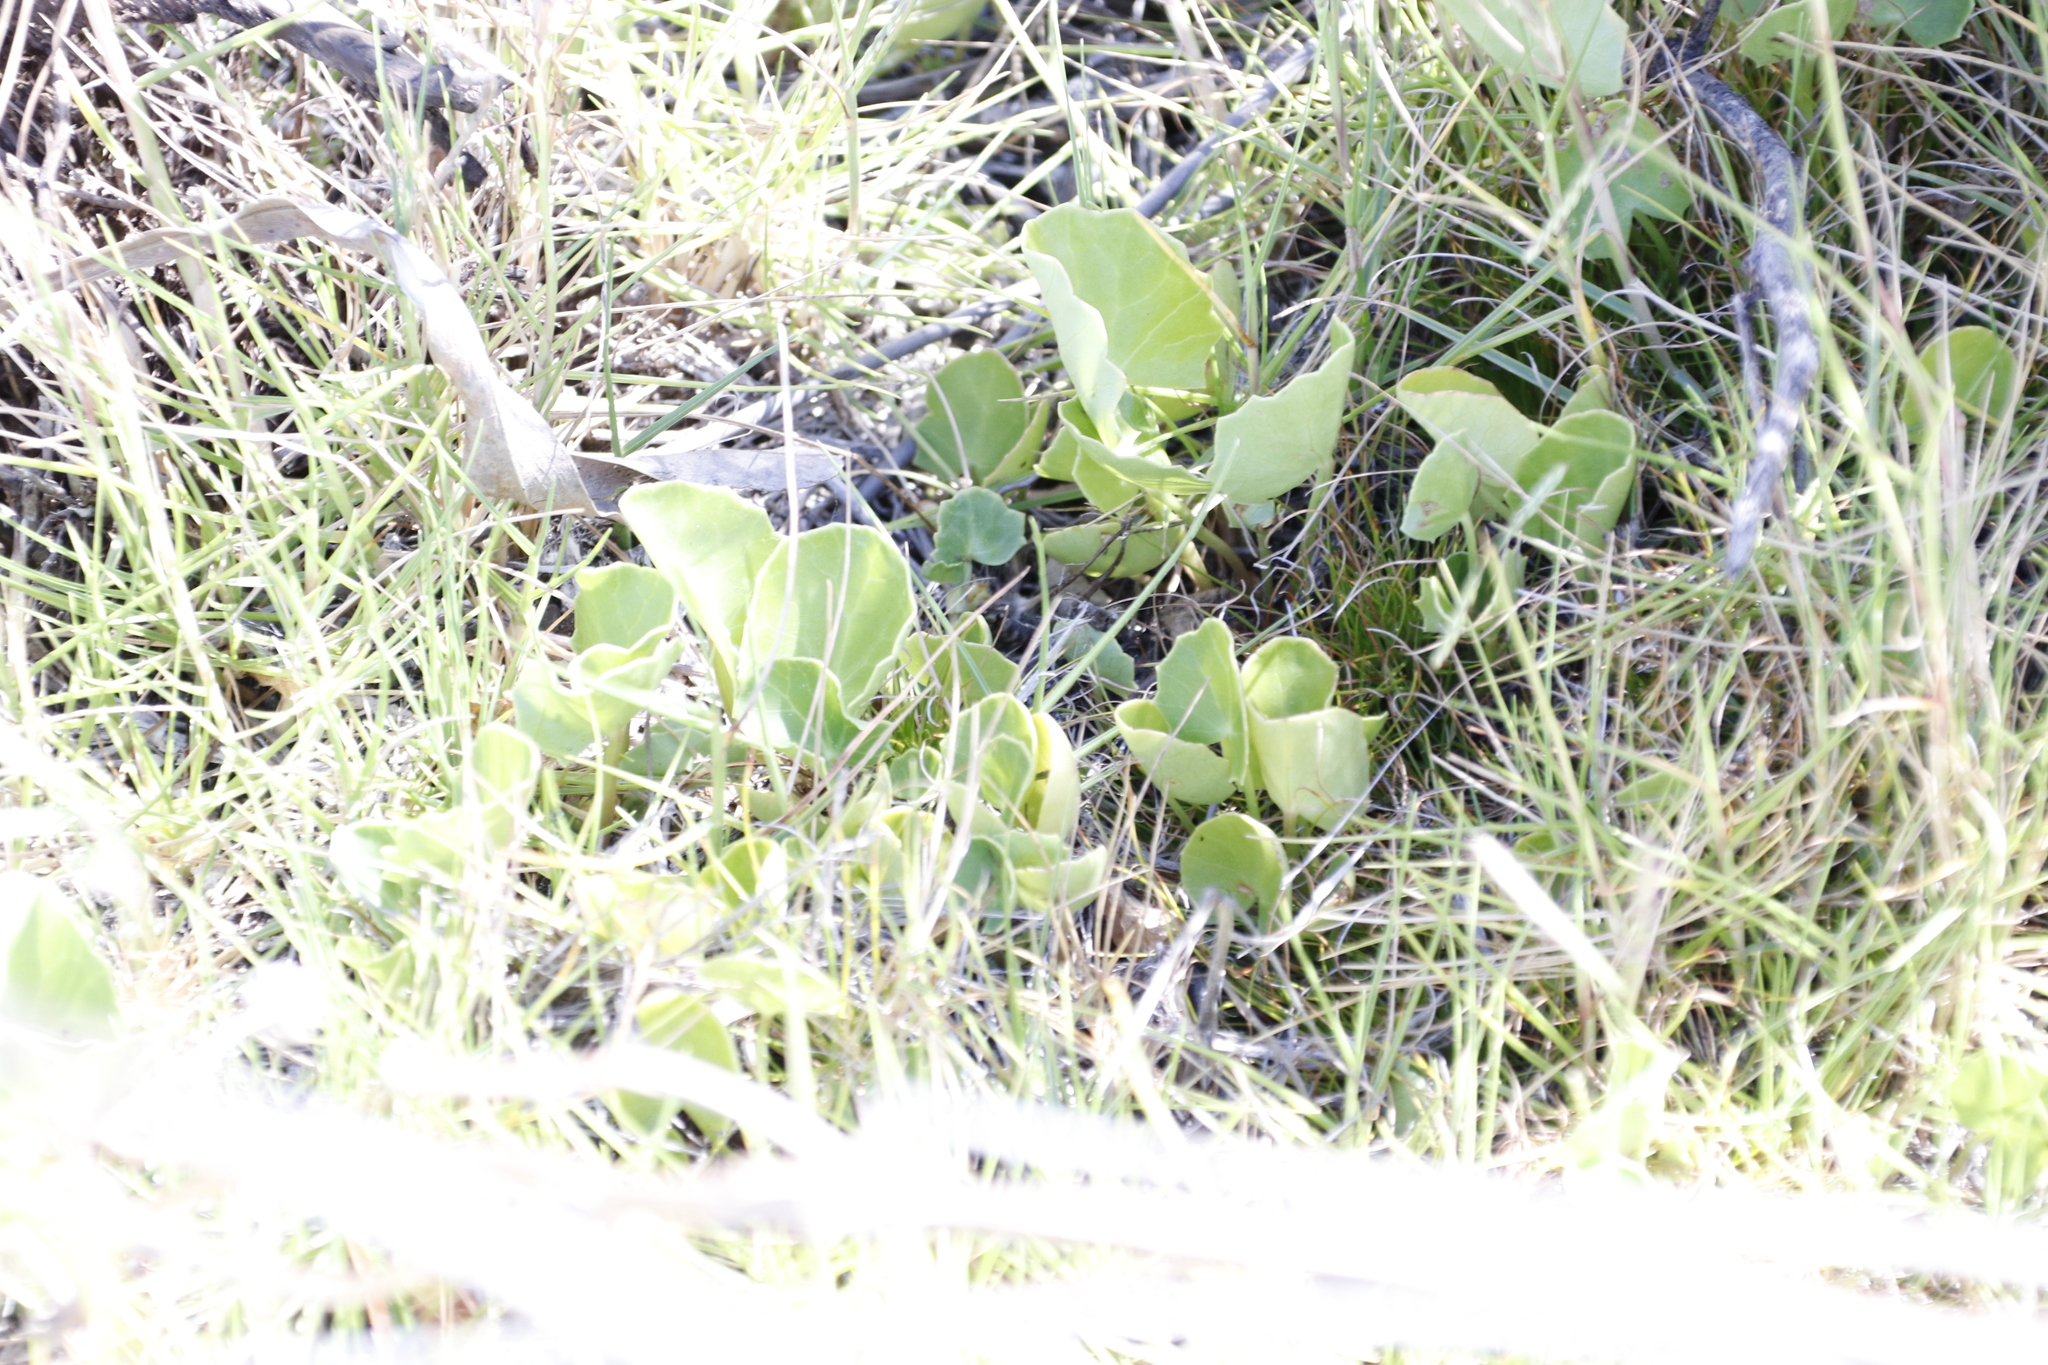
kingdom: Plantae
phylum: Tracheophyta
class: Magnoliopsida
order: Apiales
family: Apiaceae
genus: Centella
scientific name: Centella asiatica
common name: Spadeleaf
